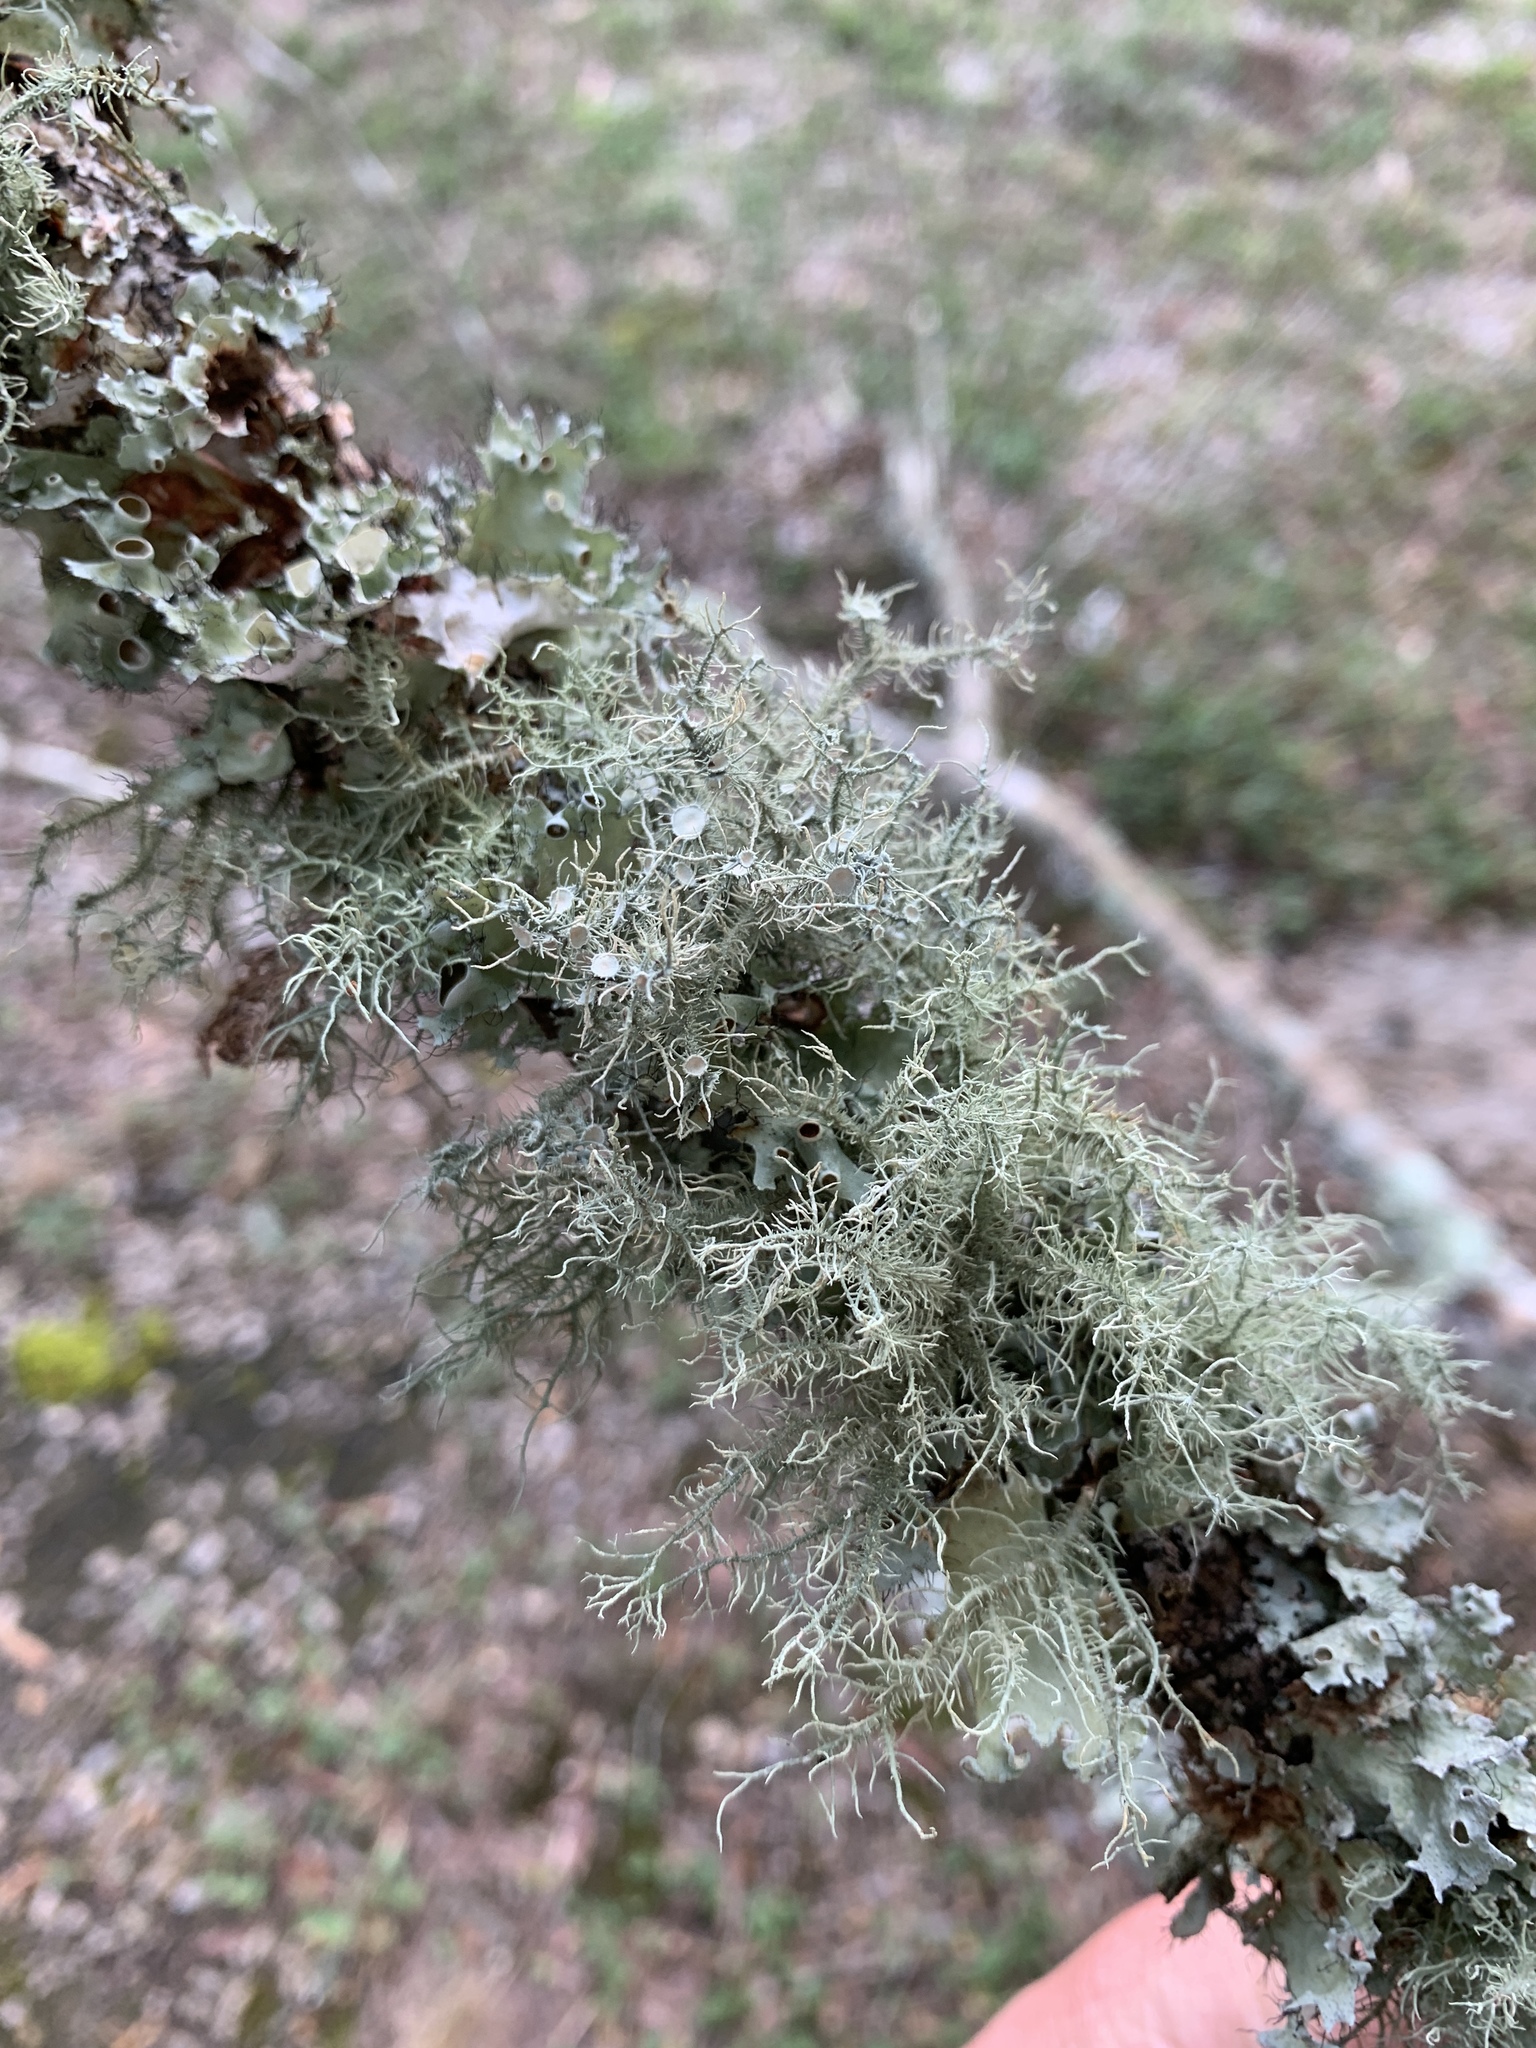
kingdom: Fungi
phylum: Ascomycota
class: Lecanoromycetes
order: Lecanorales
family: Parmeliaceae
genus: Usnea
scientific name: Usnea strigosa
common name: Bushy beard lichen
